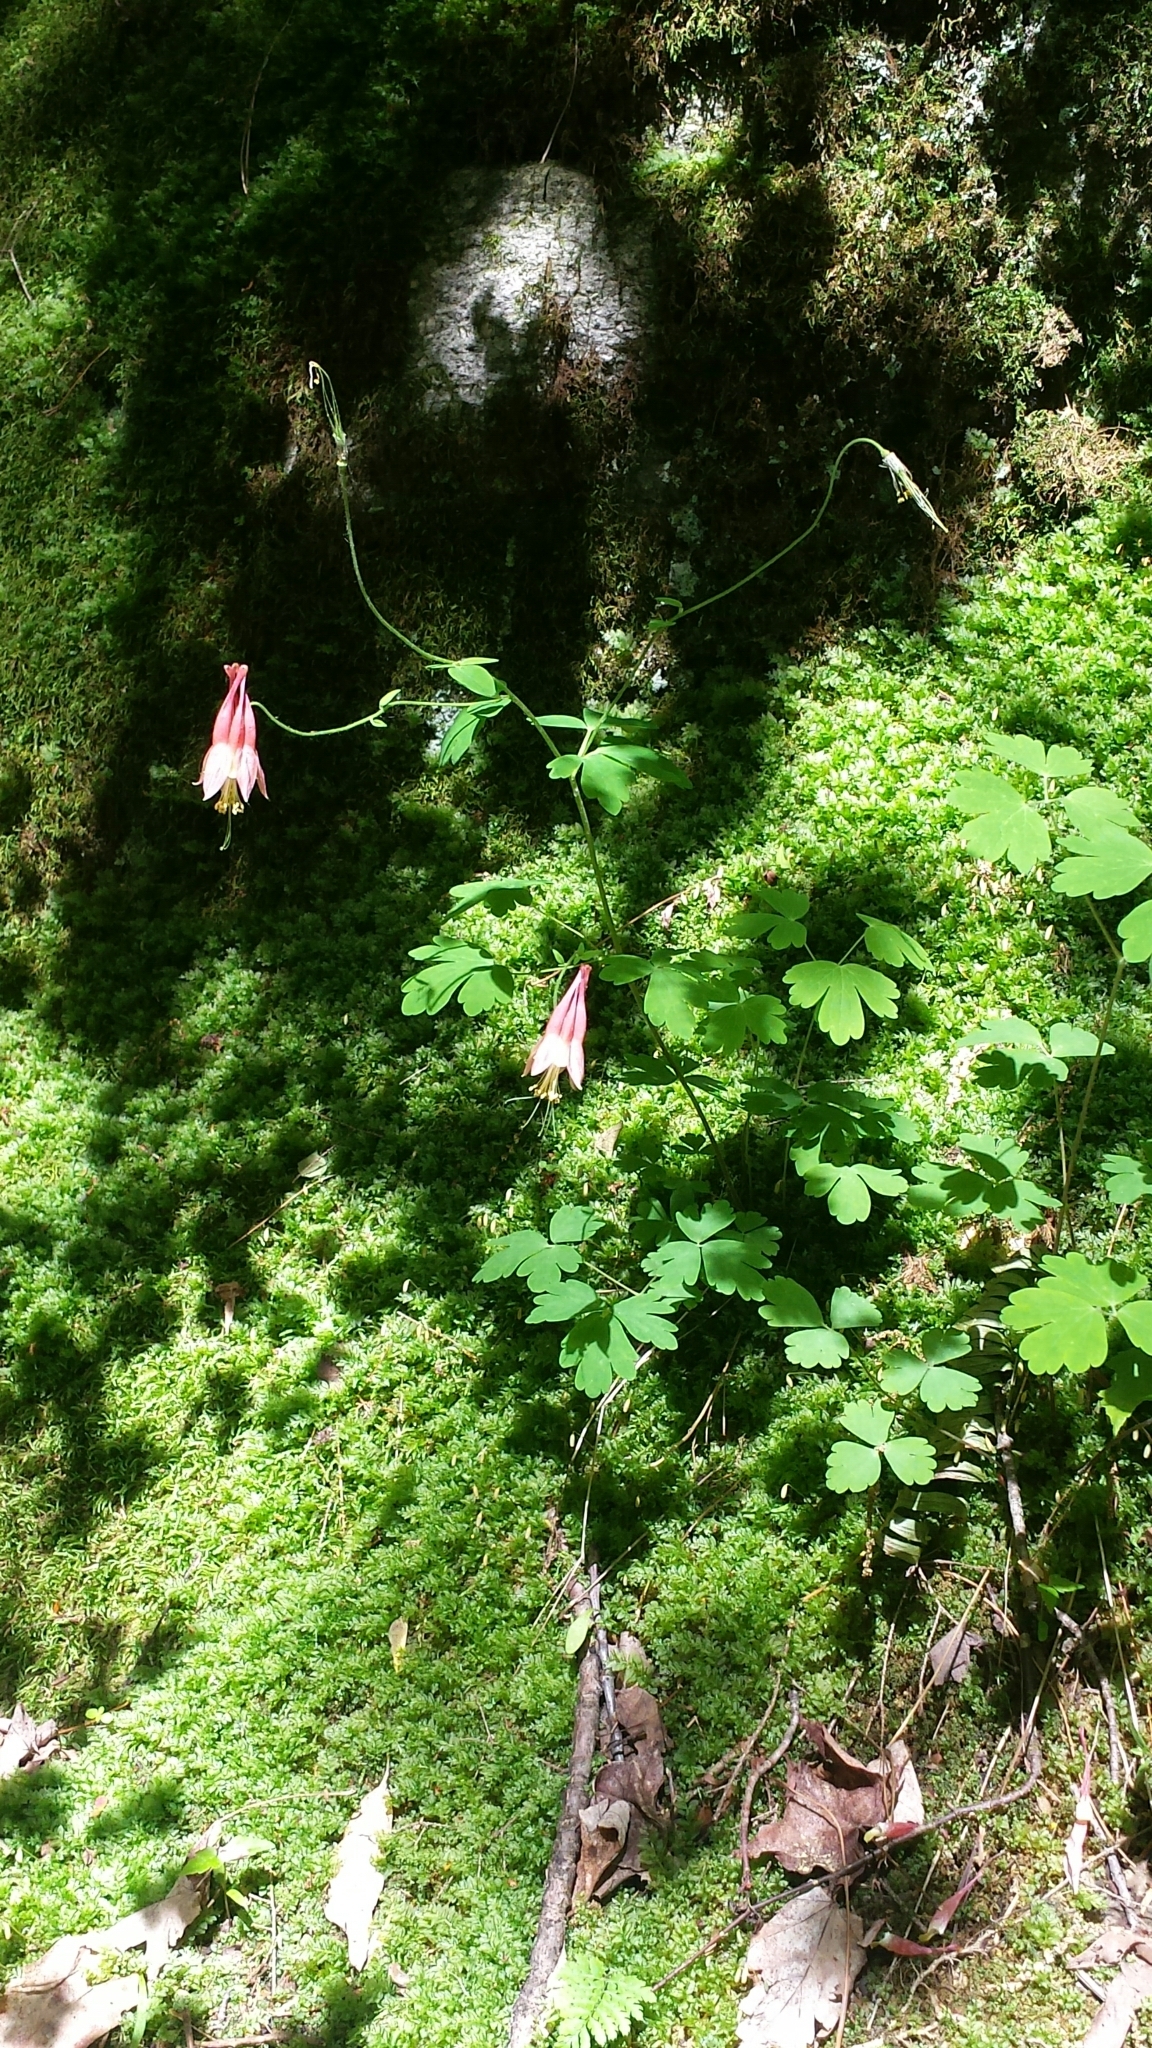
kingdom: Plantae
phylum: Tracheophyta
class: Magnoliopsida
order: Ranunculales
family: Ranunculaceae
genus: Aquilegia
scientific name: Aquilegia canadensis
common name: American columbine
